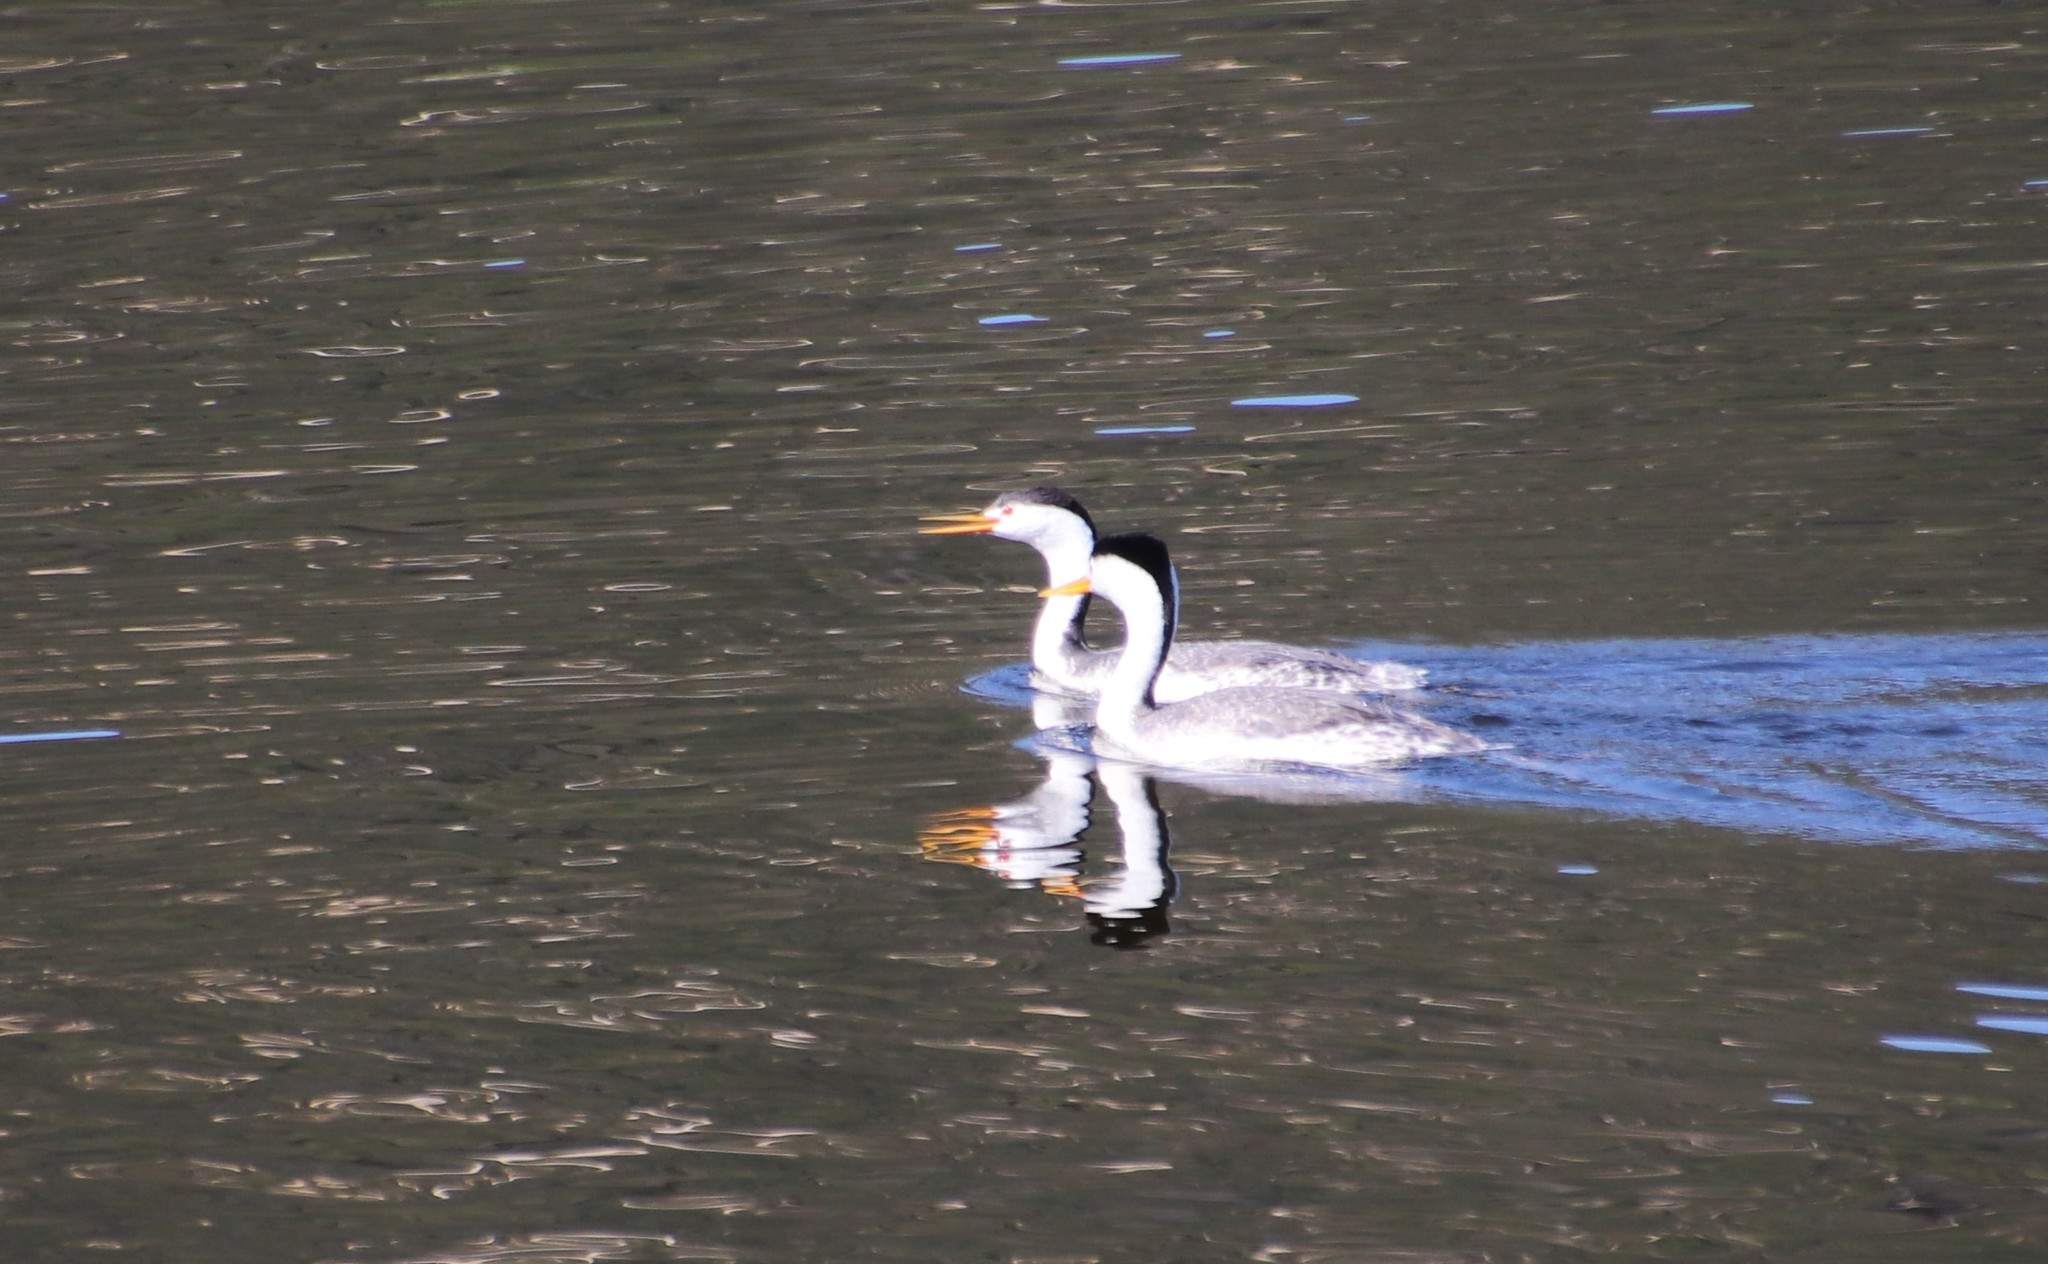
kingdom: Animalia
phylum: Chordata
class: Aves
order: Podicipediformes
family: Podicipedidae
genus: Aechmophorus
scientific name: Aechmophorus clarkii
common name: Clark's grebe
